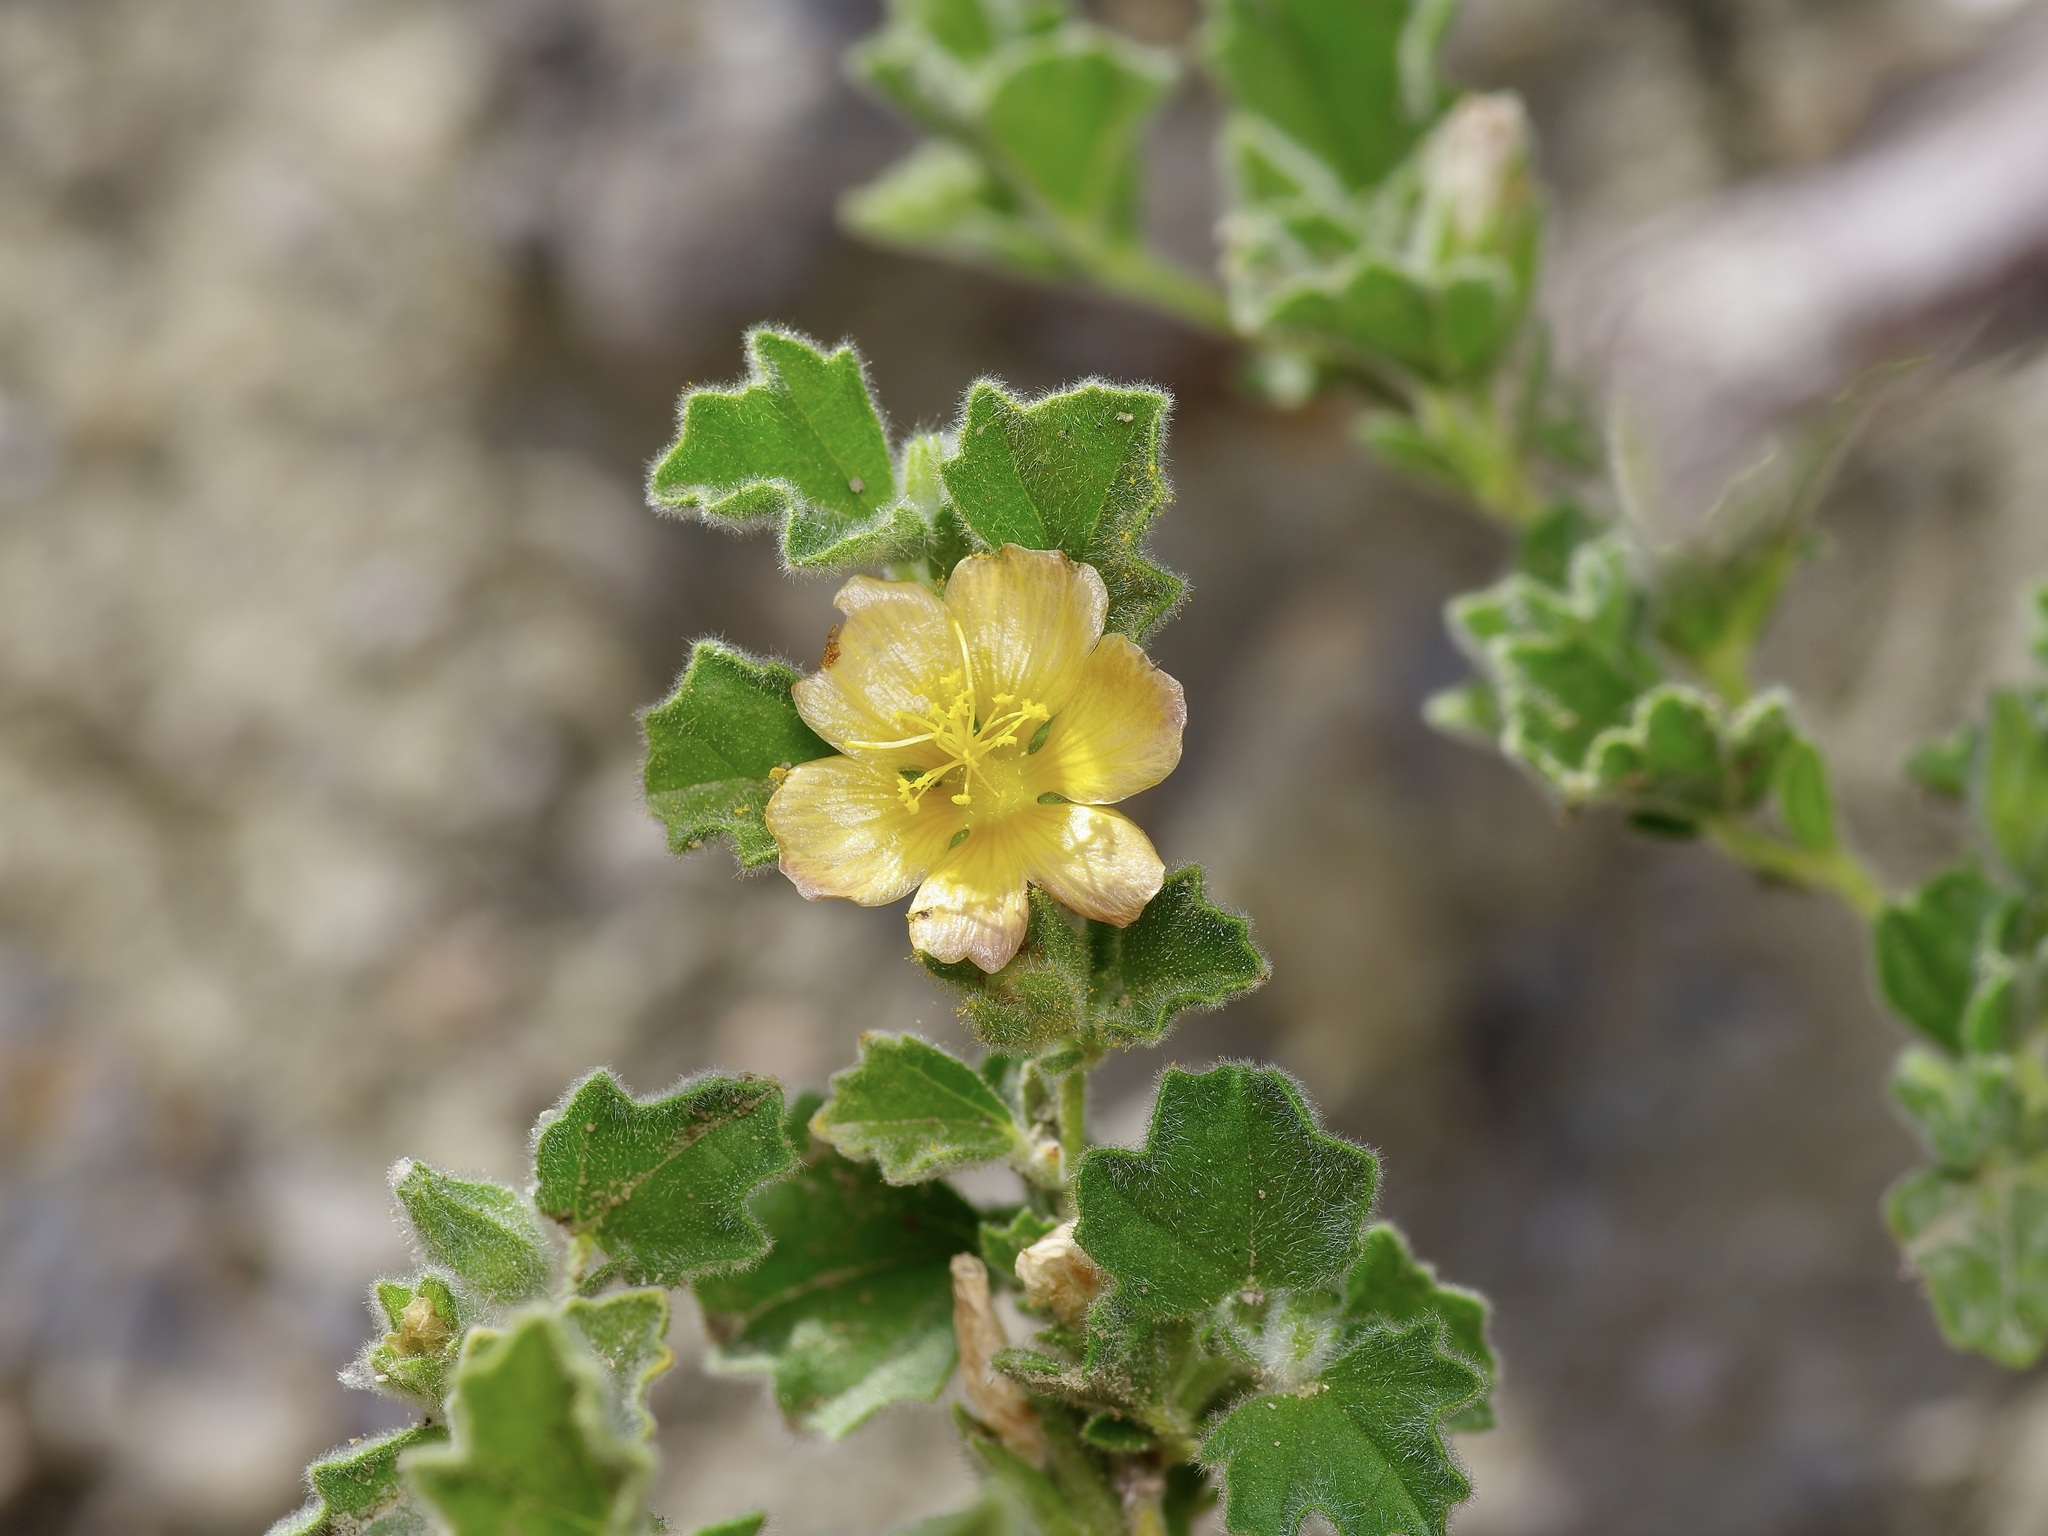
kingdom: Plantae
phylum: Tracheophyta
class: Magnoliopsida
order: Malvales
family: Malvaceae
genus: Billieturnera
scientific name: Billieturnera helleri
